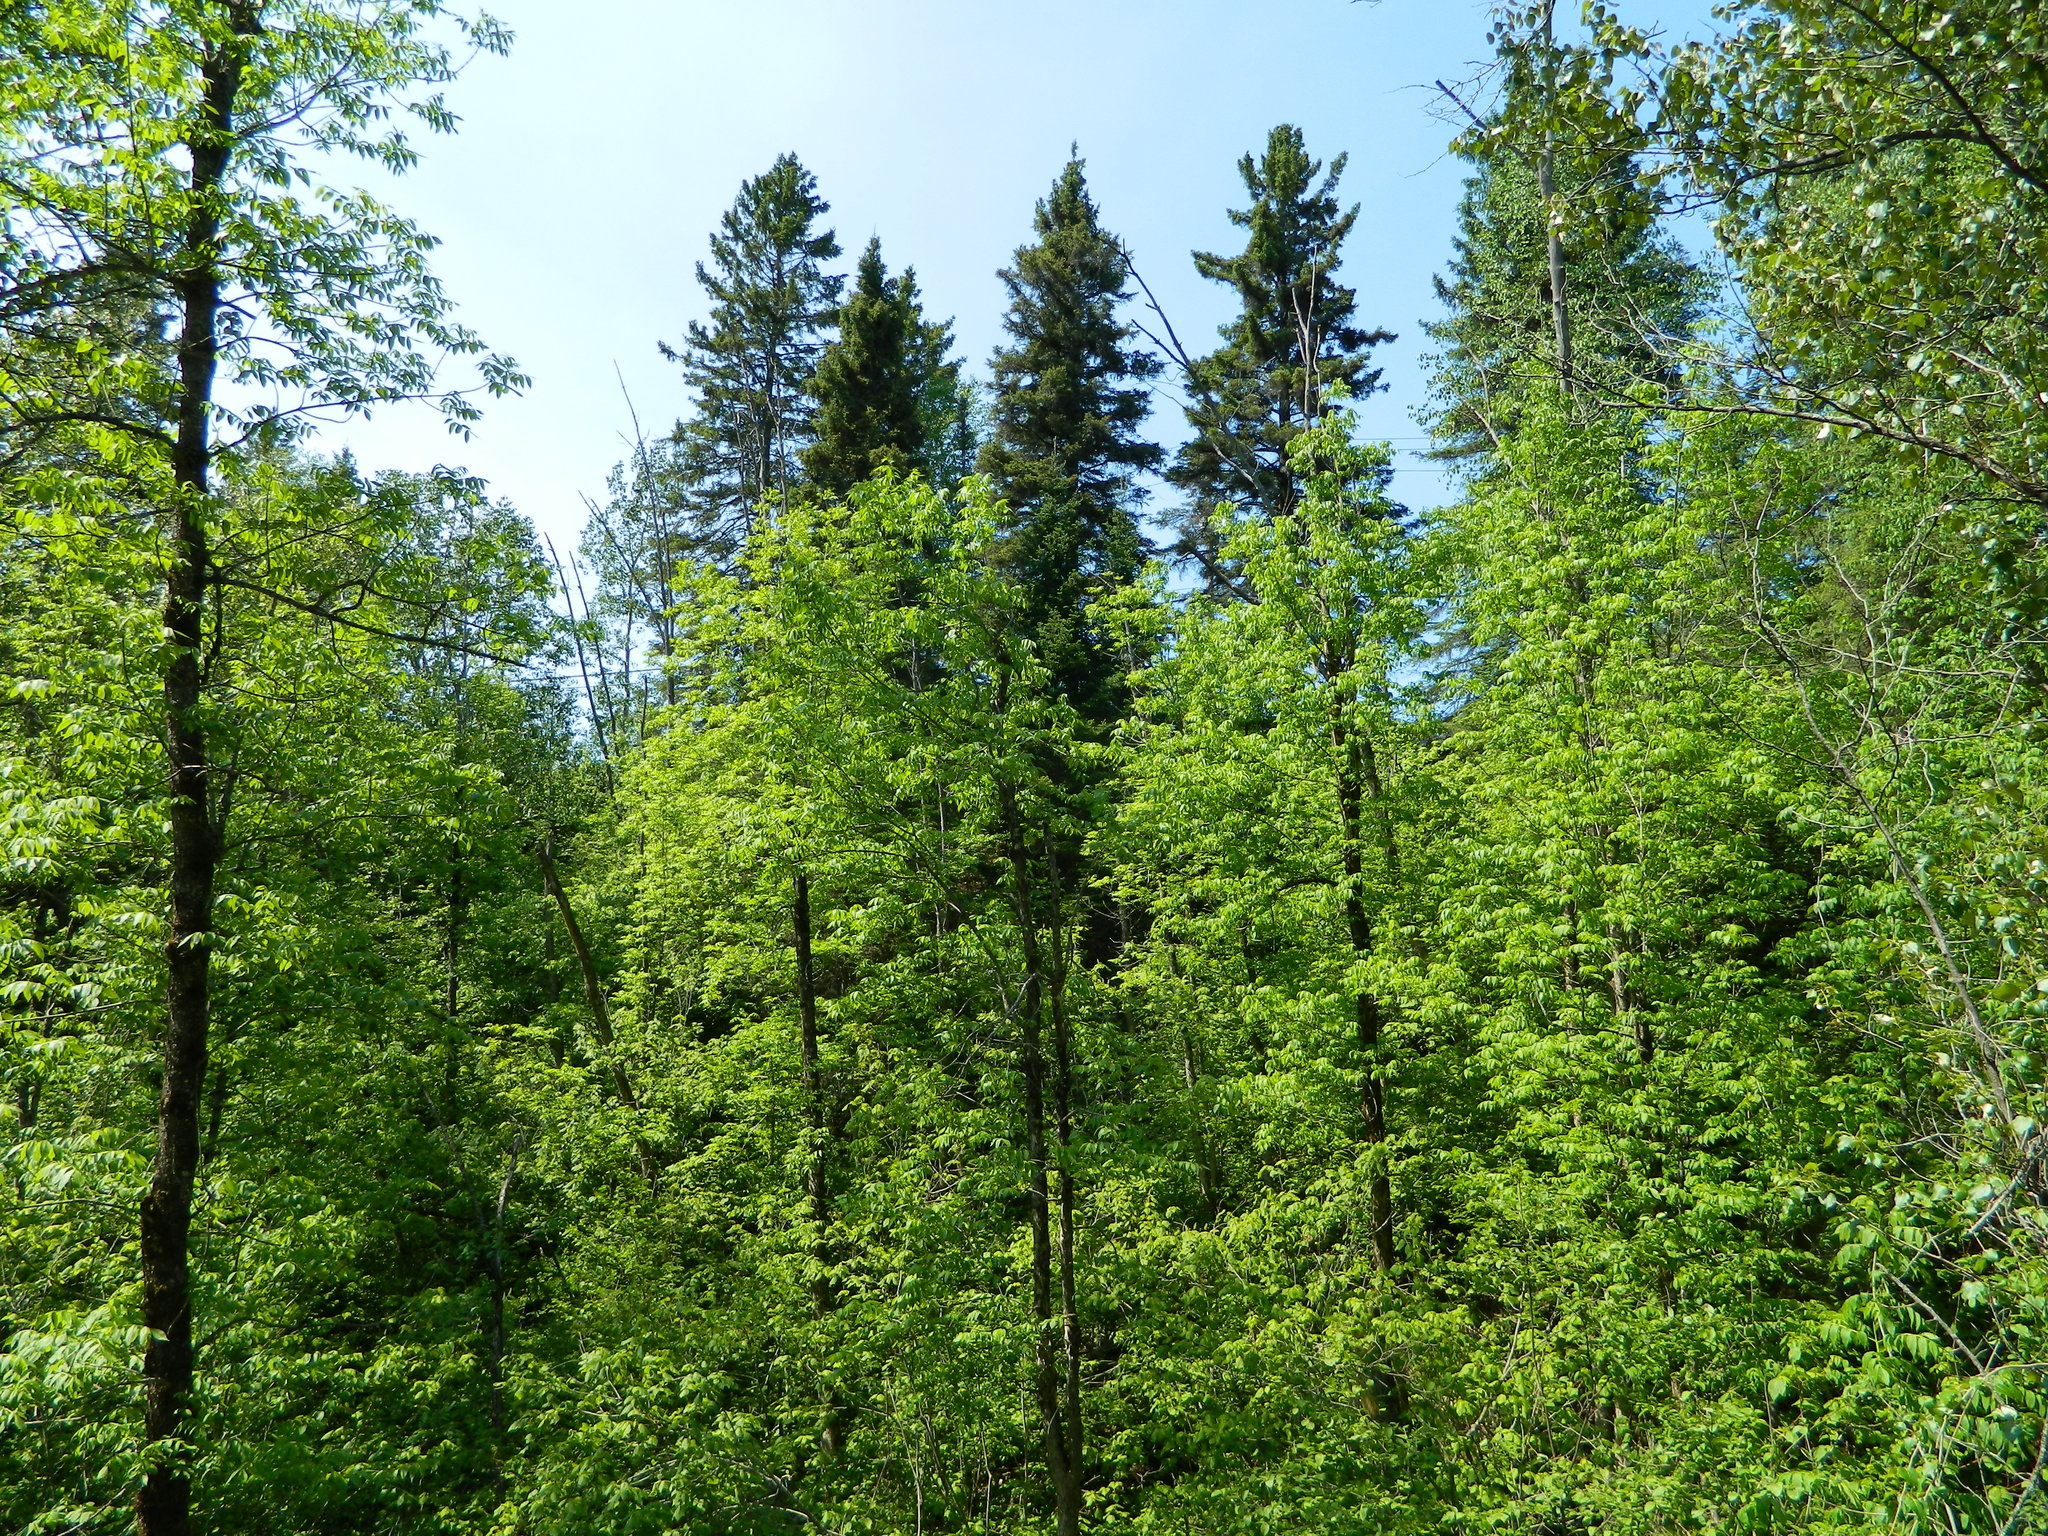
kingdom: Plantae
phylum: Tracheophyta
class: Magnoliopsida
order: Lamiales
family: Oleaceae
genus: Fraxinus
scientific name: Fraxinus nigra
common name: Black ash
